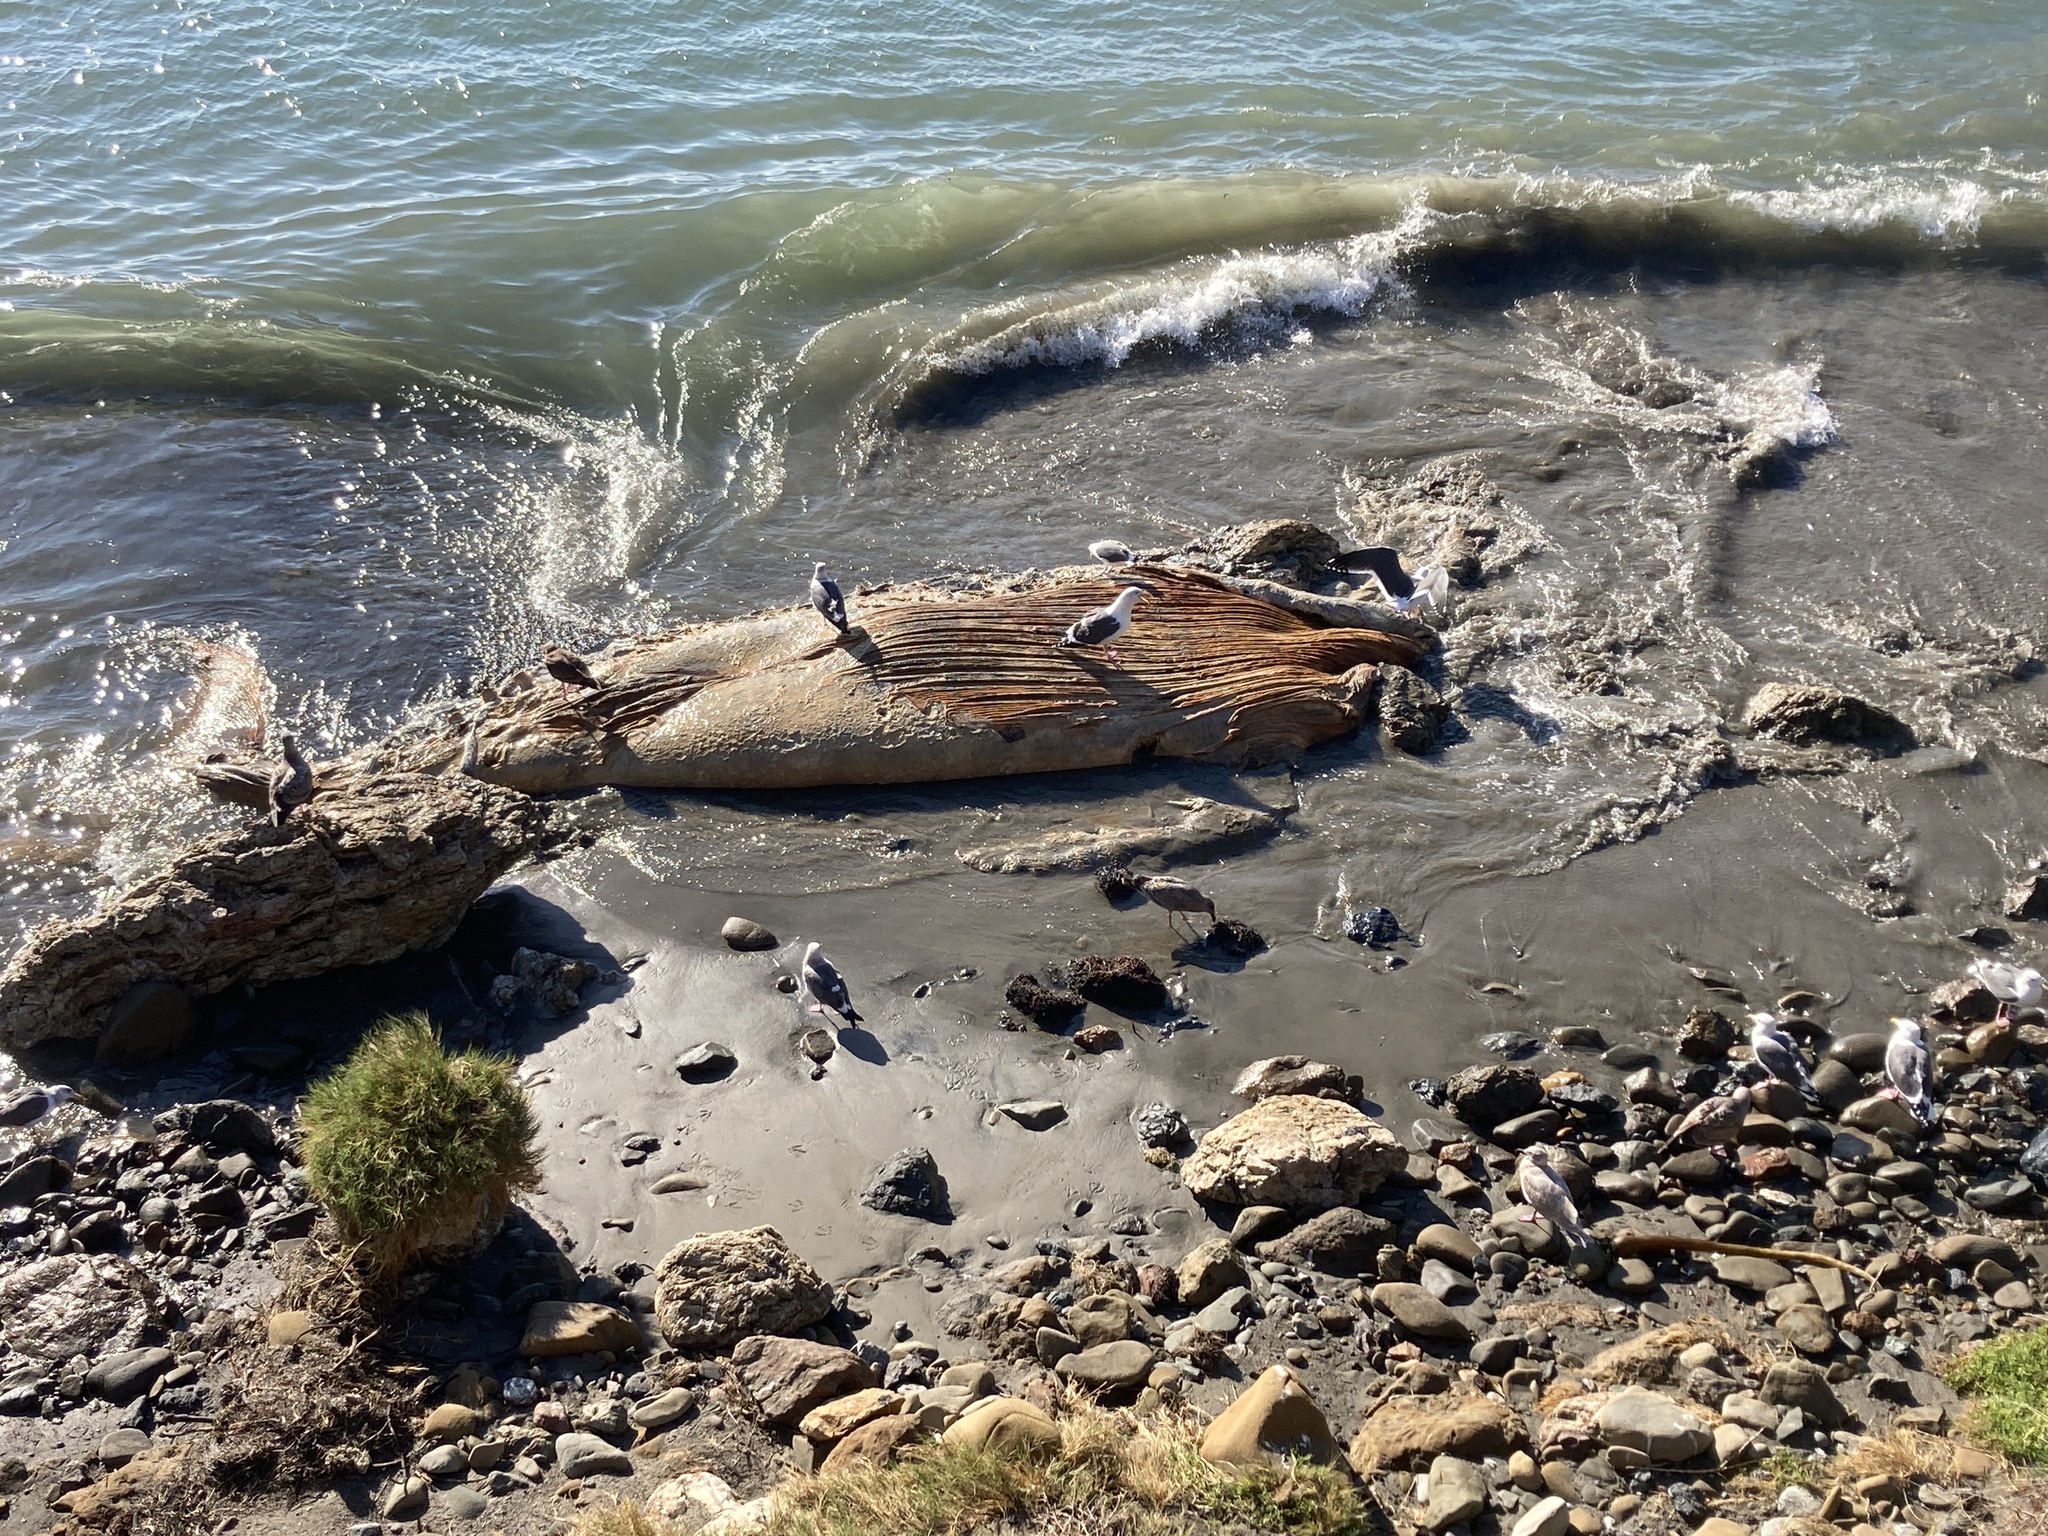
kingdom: Animalia
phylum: Chordata
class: Mammalia
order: Cetacea
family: Balaenopteridae
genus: Megaptera
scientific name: Megaptera novaeangliae
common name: Humpback whale
